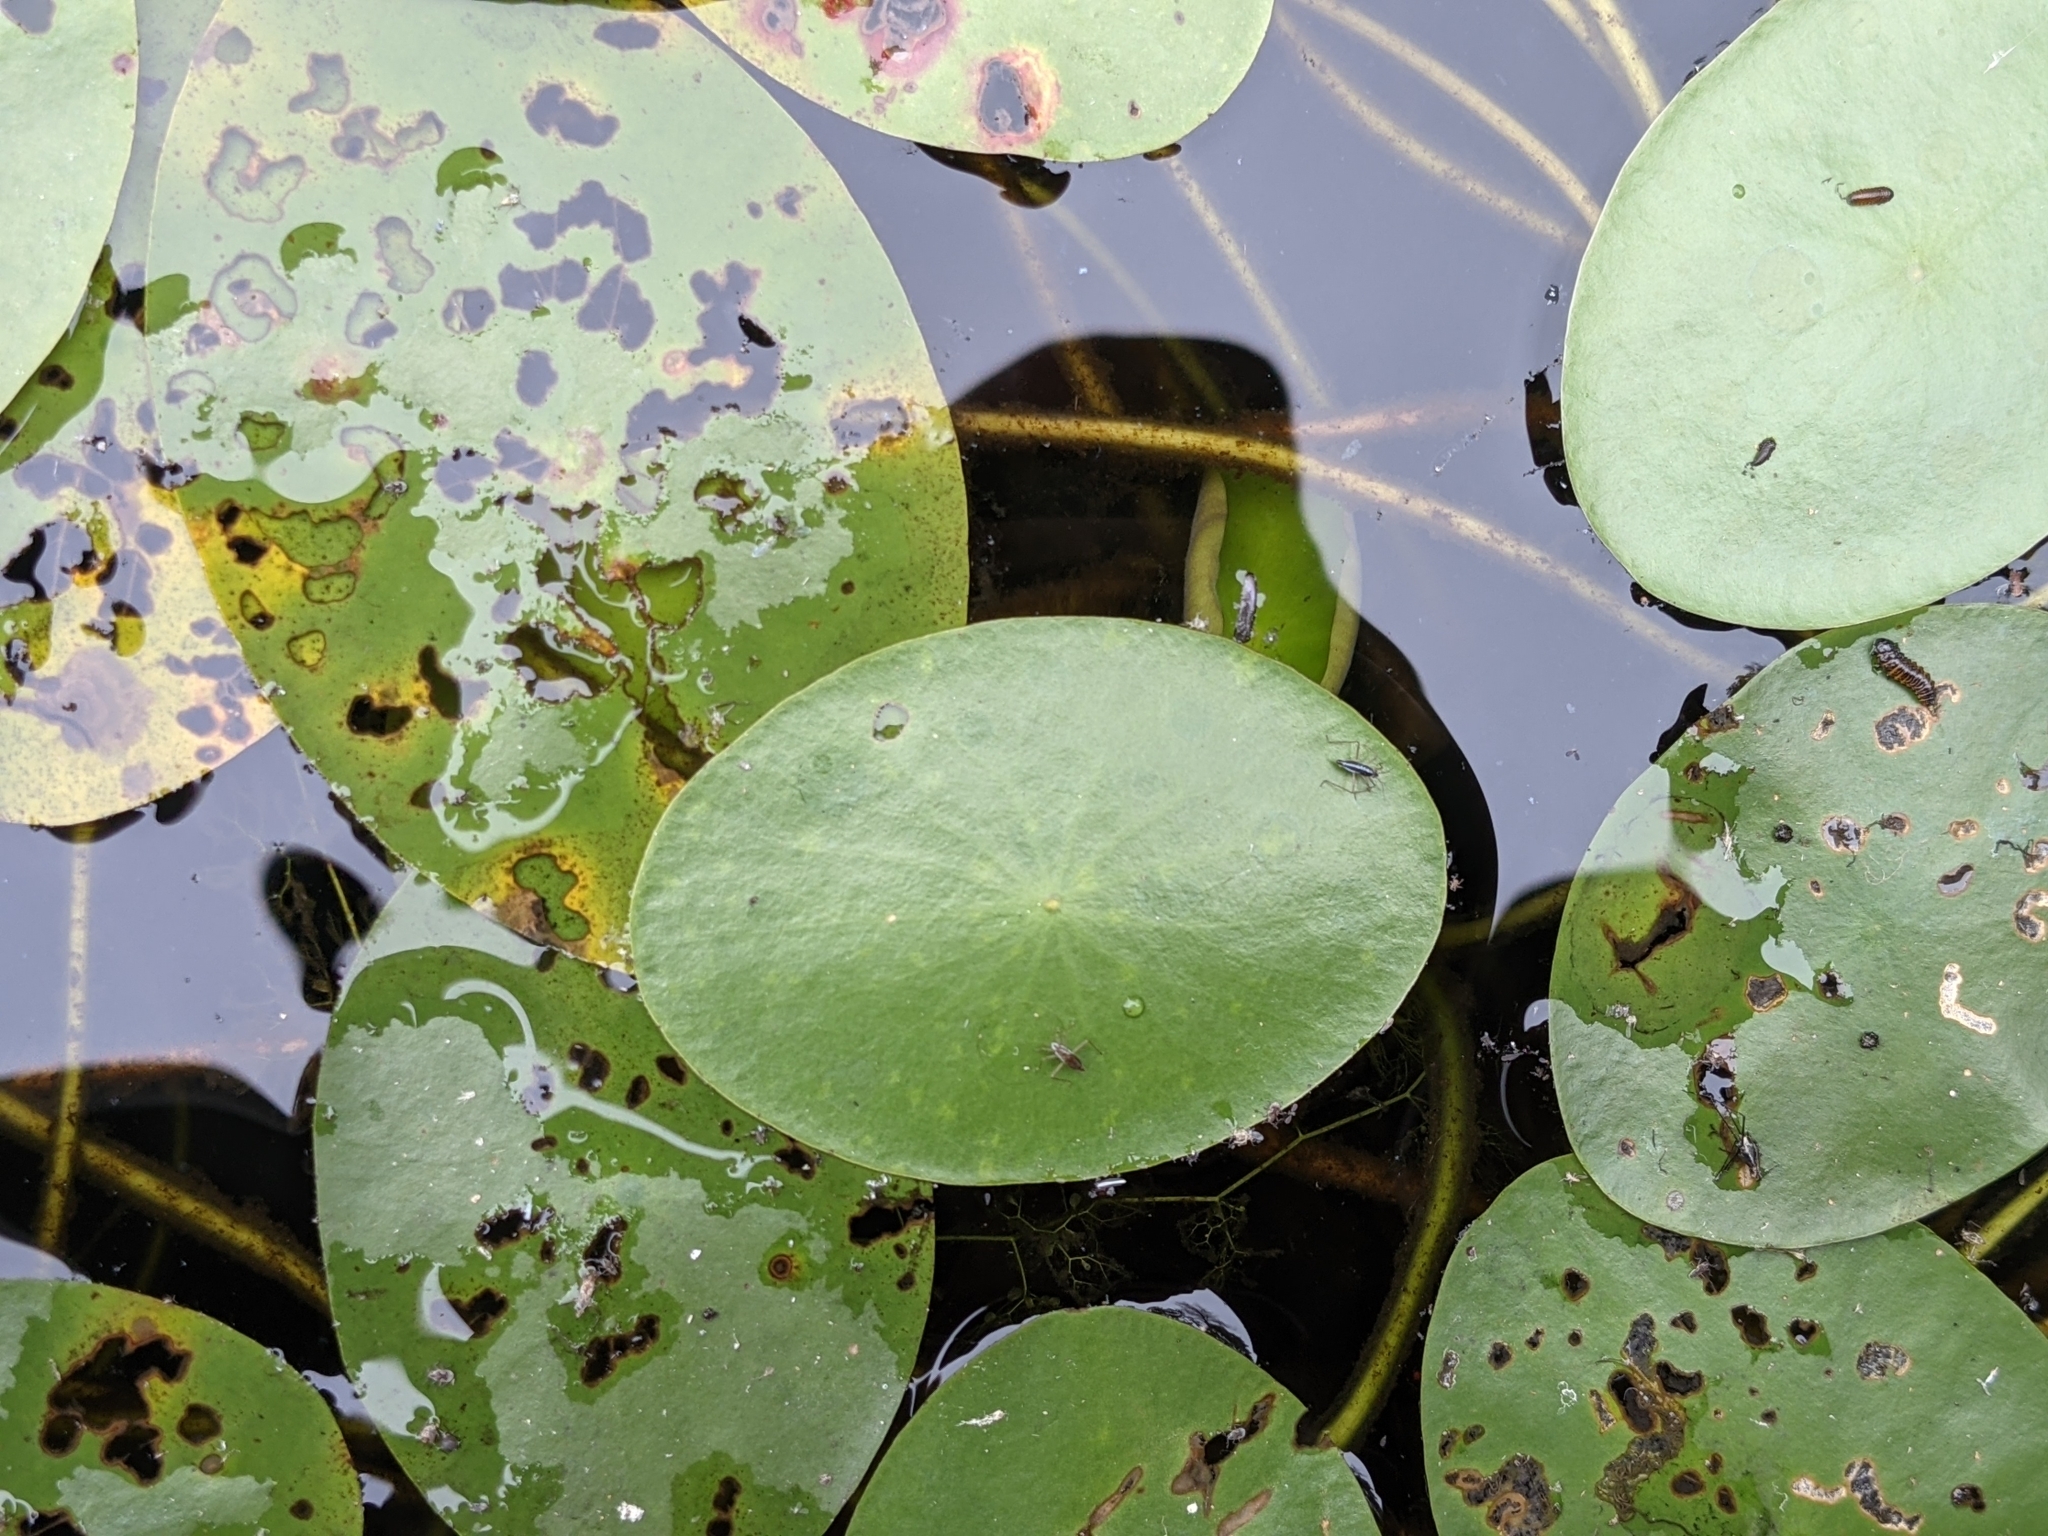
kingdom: Animalia
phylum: Arthropoda
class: Insecta
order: Hemiptera
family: Mesoveliidae
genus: Mesovelia
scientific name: Mesovelia
